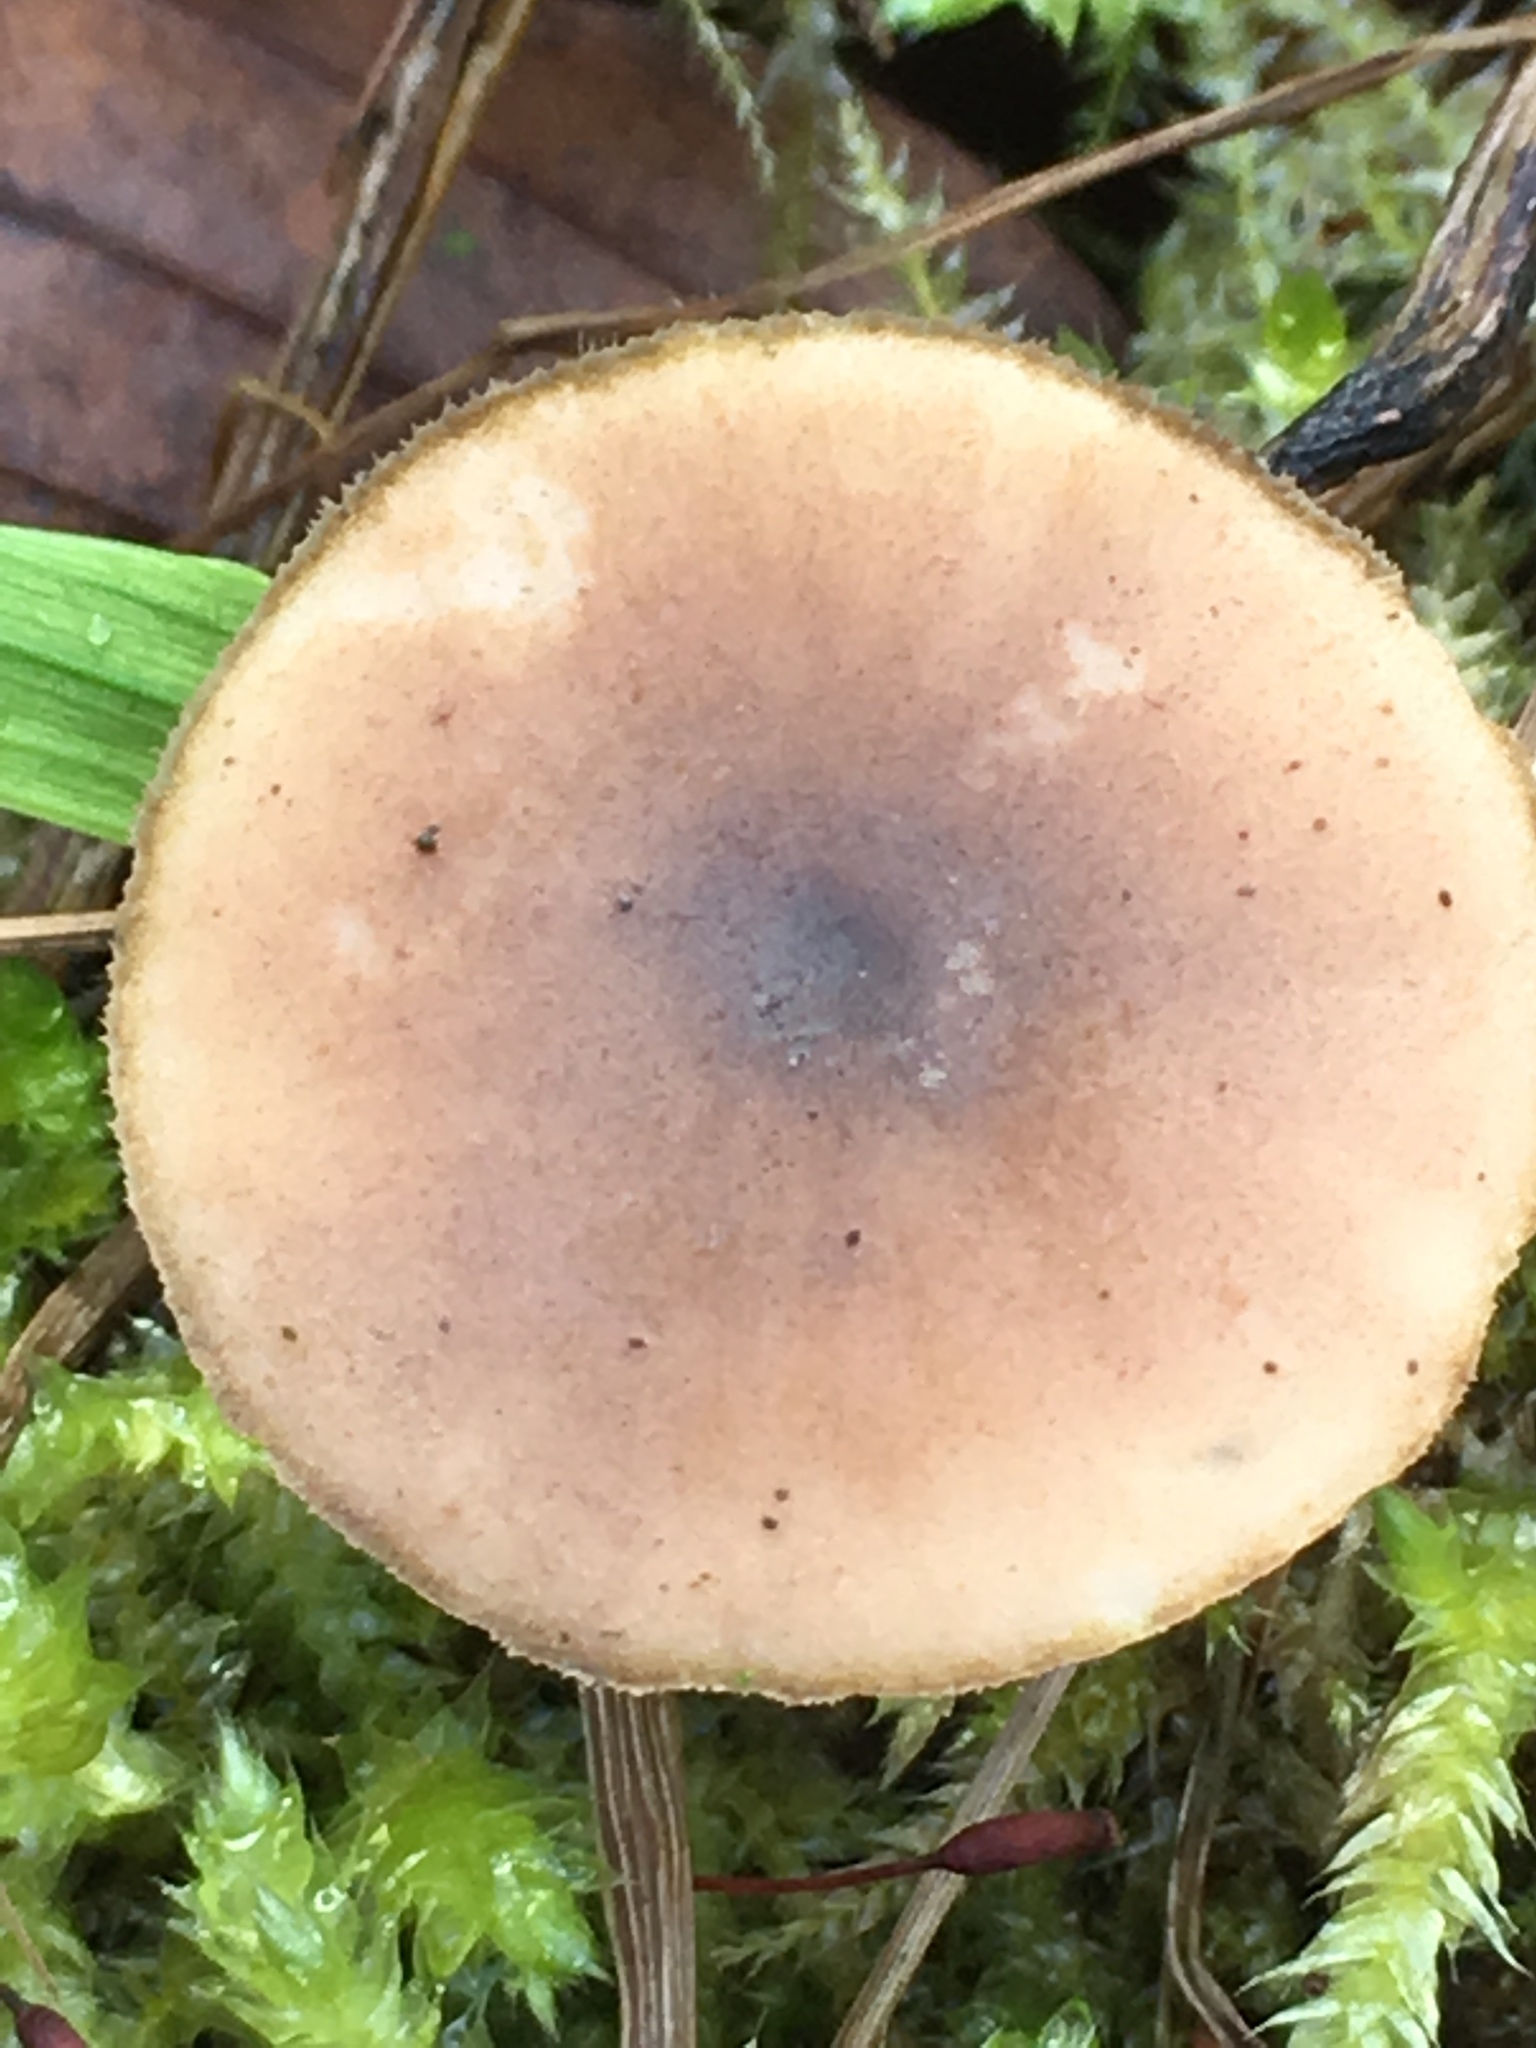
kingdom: Fungi
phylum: Basidiomycota
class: Agaricomycetes
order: Polyporales
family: Polyporaceae
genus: Lentinus
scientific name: Lentinus brumalis
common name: Winter polypore
